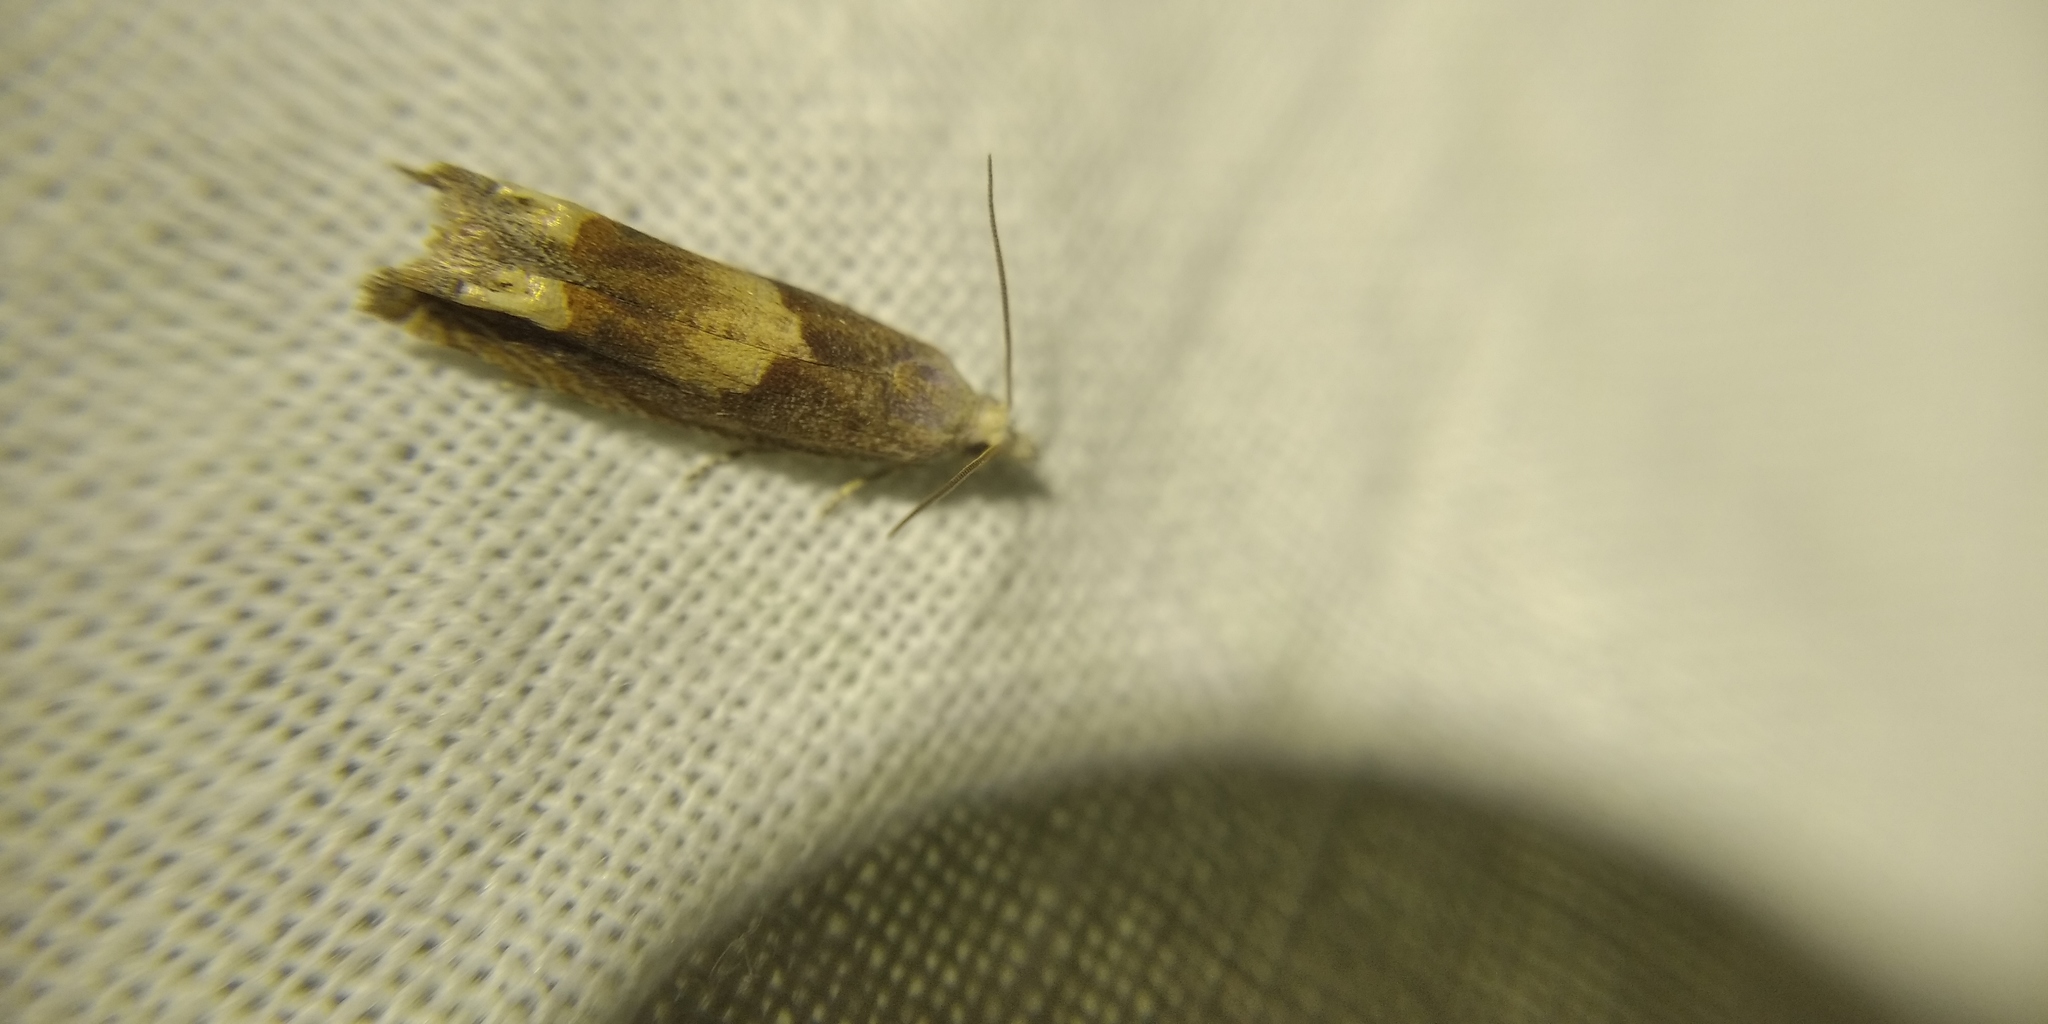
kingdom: Animalia
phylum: Arthropoda
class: Insecta
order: Lepidoptera
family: Tortricidae
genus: Eucosma
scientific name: Eucosma conterminana
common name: Pale lettuce bell
